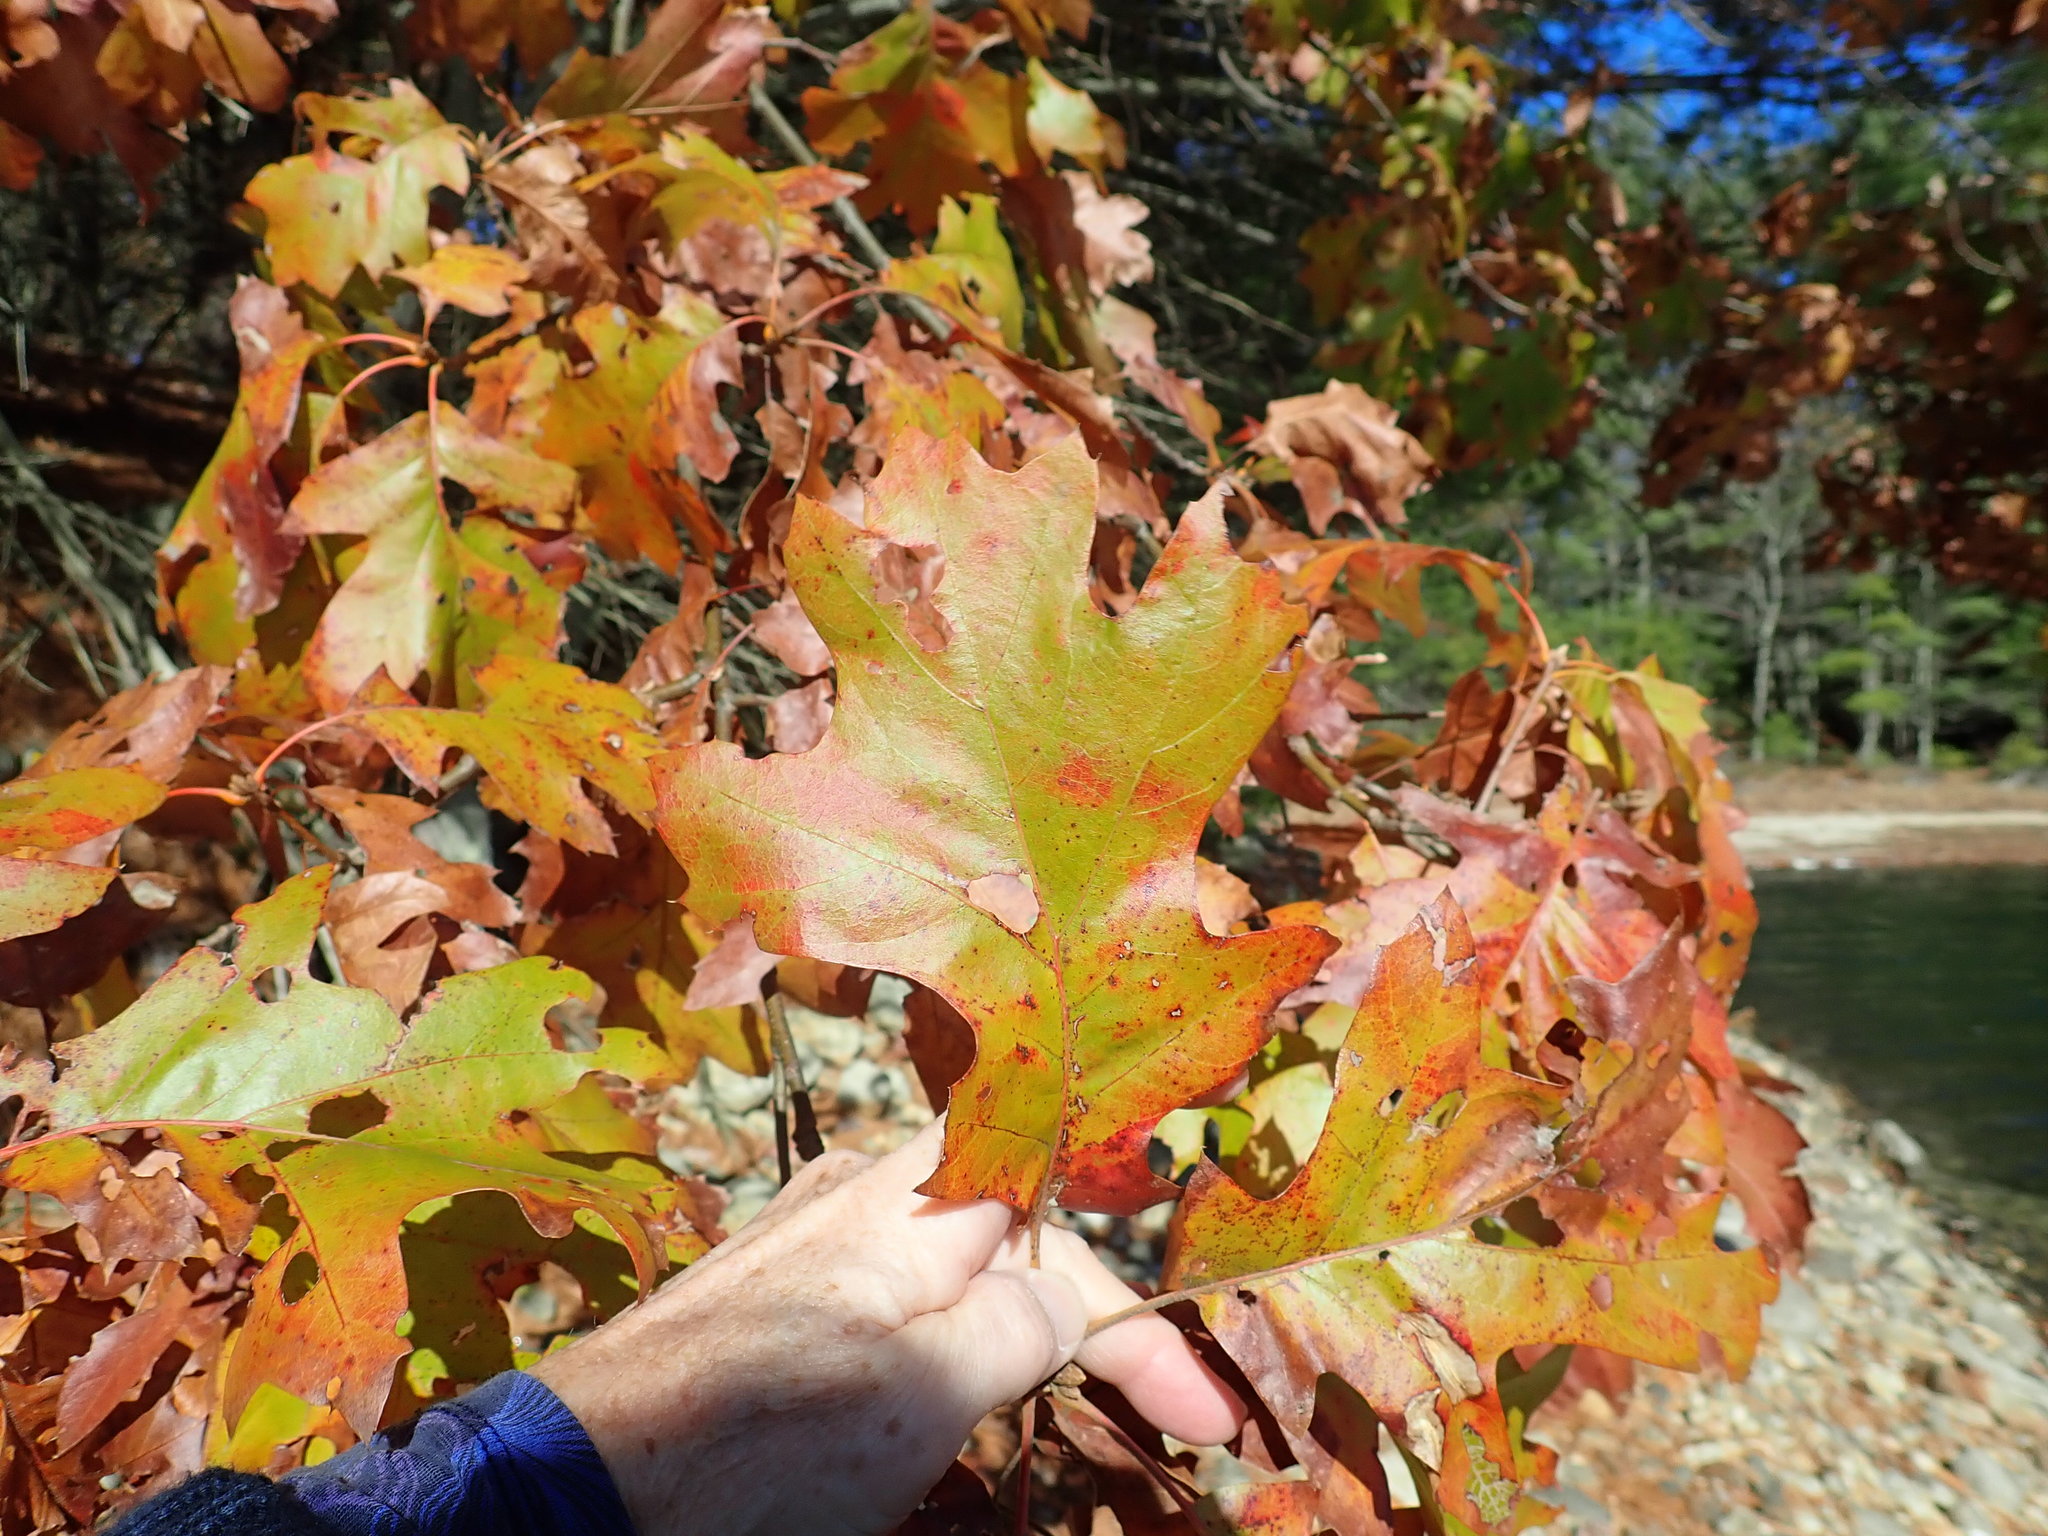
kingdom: Plantae
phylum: Tracheophyta
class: Magnoliopsida
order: Fagales
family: Fagaceae
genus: Quercus
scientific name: Quercus velutina
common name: Black oak
